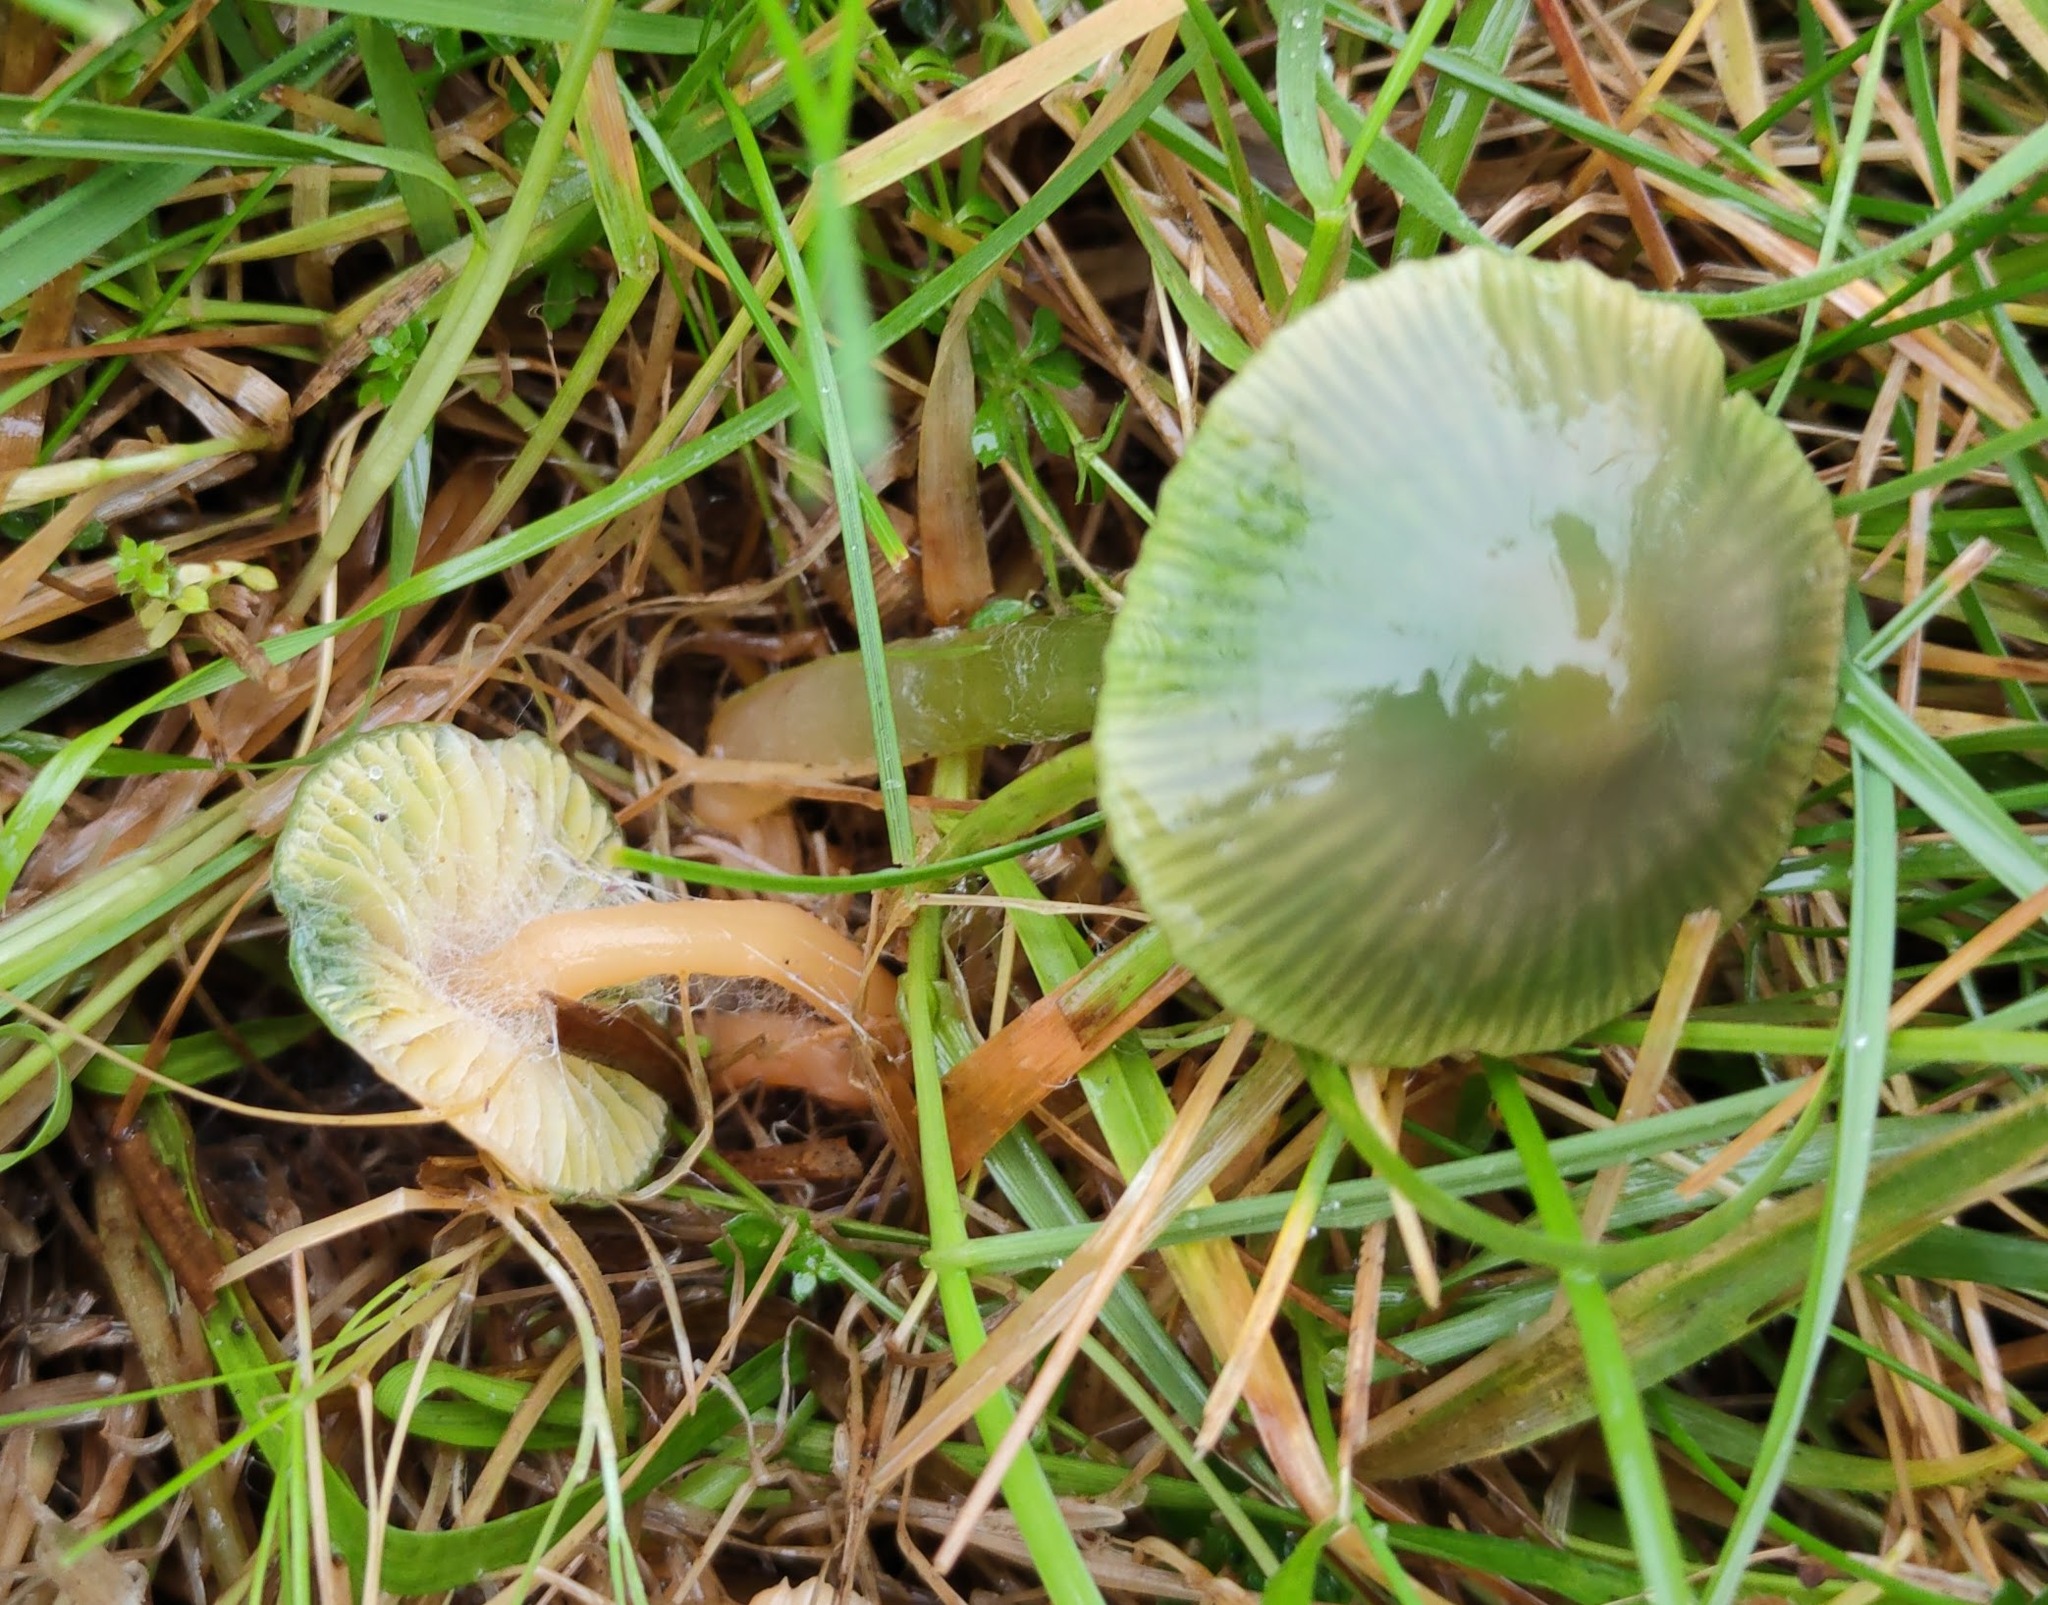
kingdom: Fungi
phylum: Basidiomycota
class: Agaricomycetes
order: Agaricales
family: Hygrophoraceae
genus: Gliophorus
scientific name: Gliophorus psittacinus
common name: Parrot wax-cap
